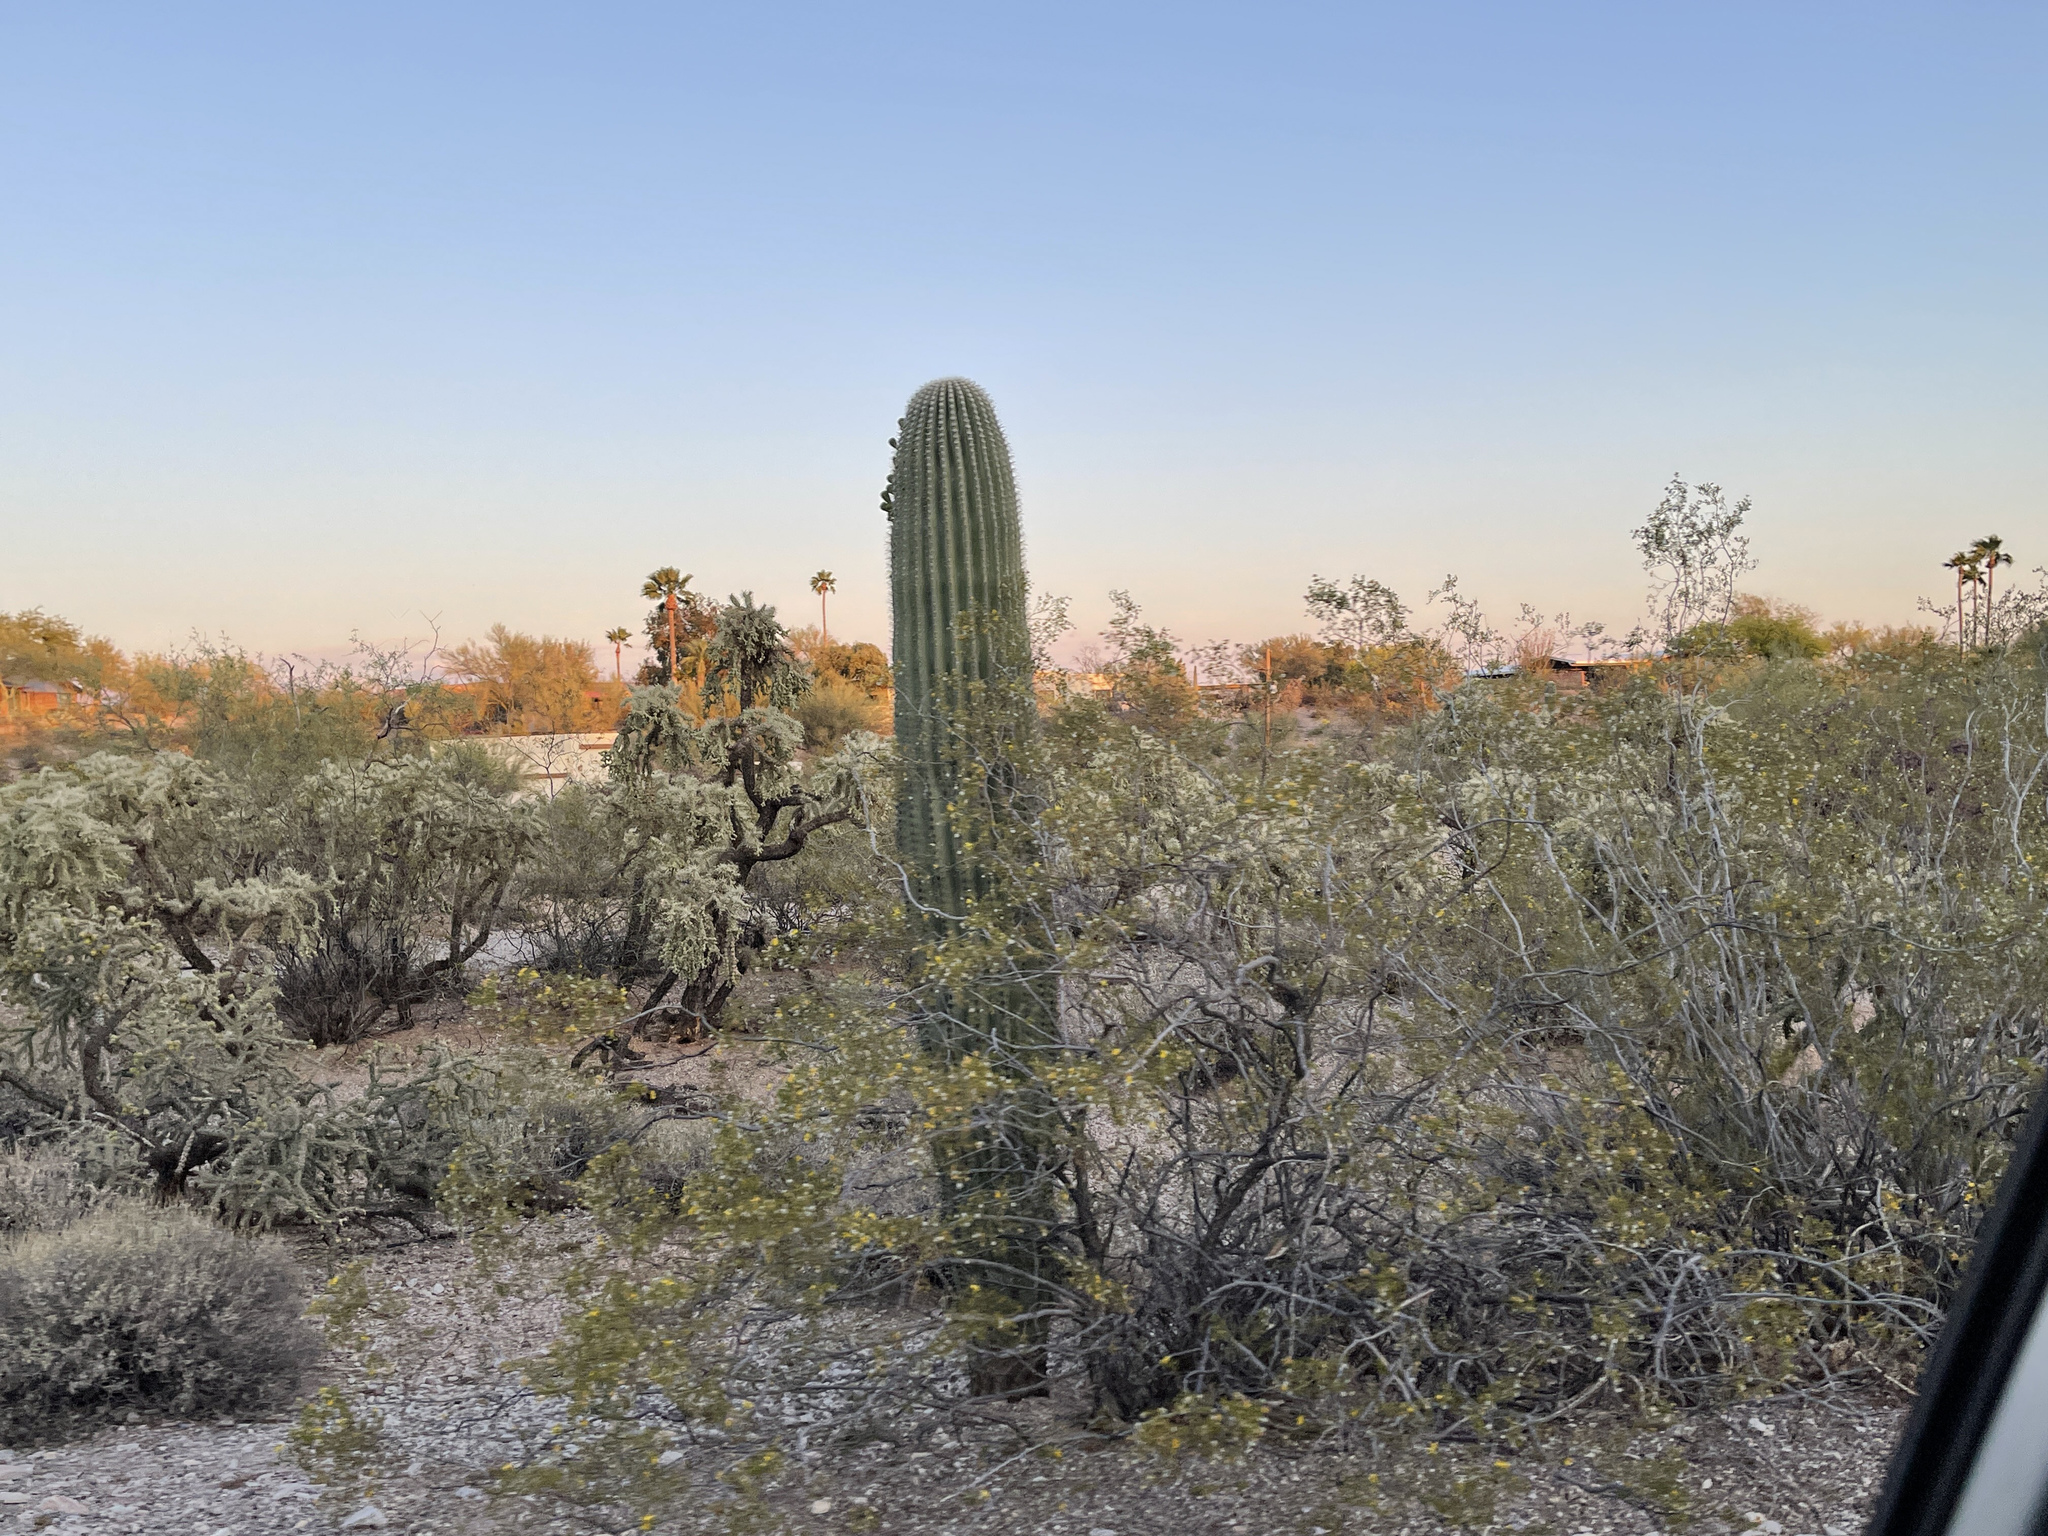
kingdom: Plantae
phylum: Tracheophyta
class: Magnoliopsida
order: Caryophyllales
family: Cactaceae
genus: Carnegiea
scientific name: Carnegiea gigantea
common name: Saguaro
